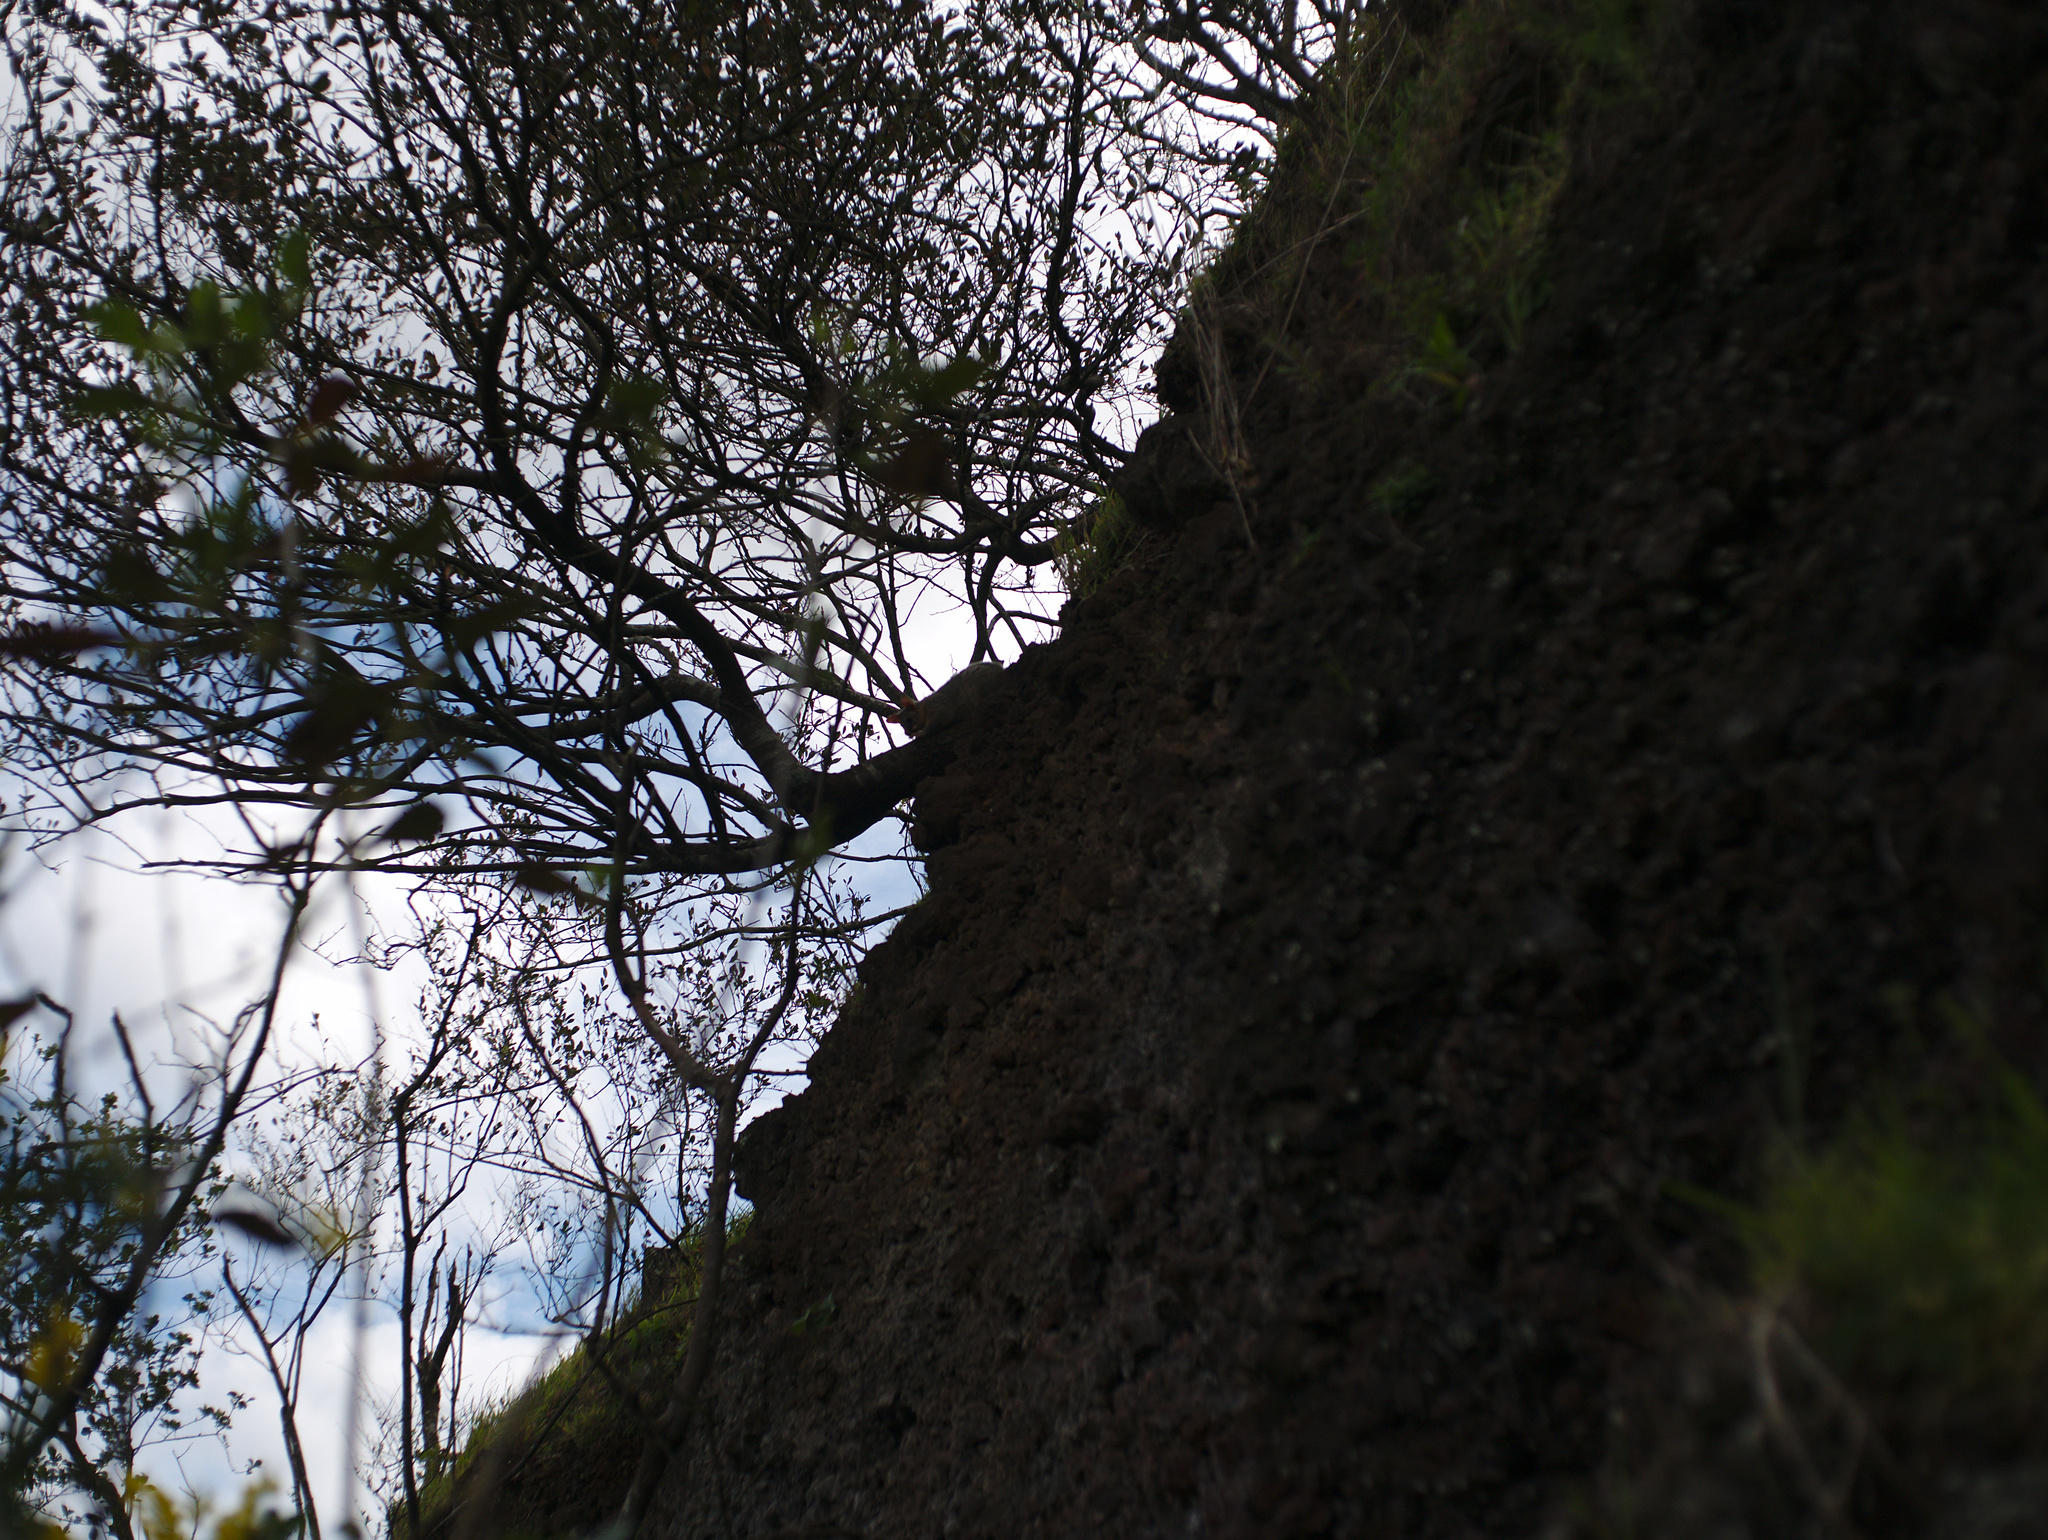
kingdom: Animalia
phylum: Chordata
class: Mammalia
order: Diprotodontia
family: Phalangeridae
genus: Trichosurus
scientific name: Trichosurus vulpecula
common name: Common brushtail
